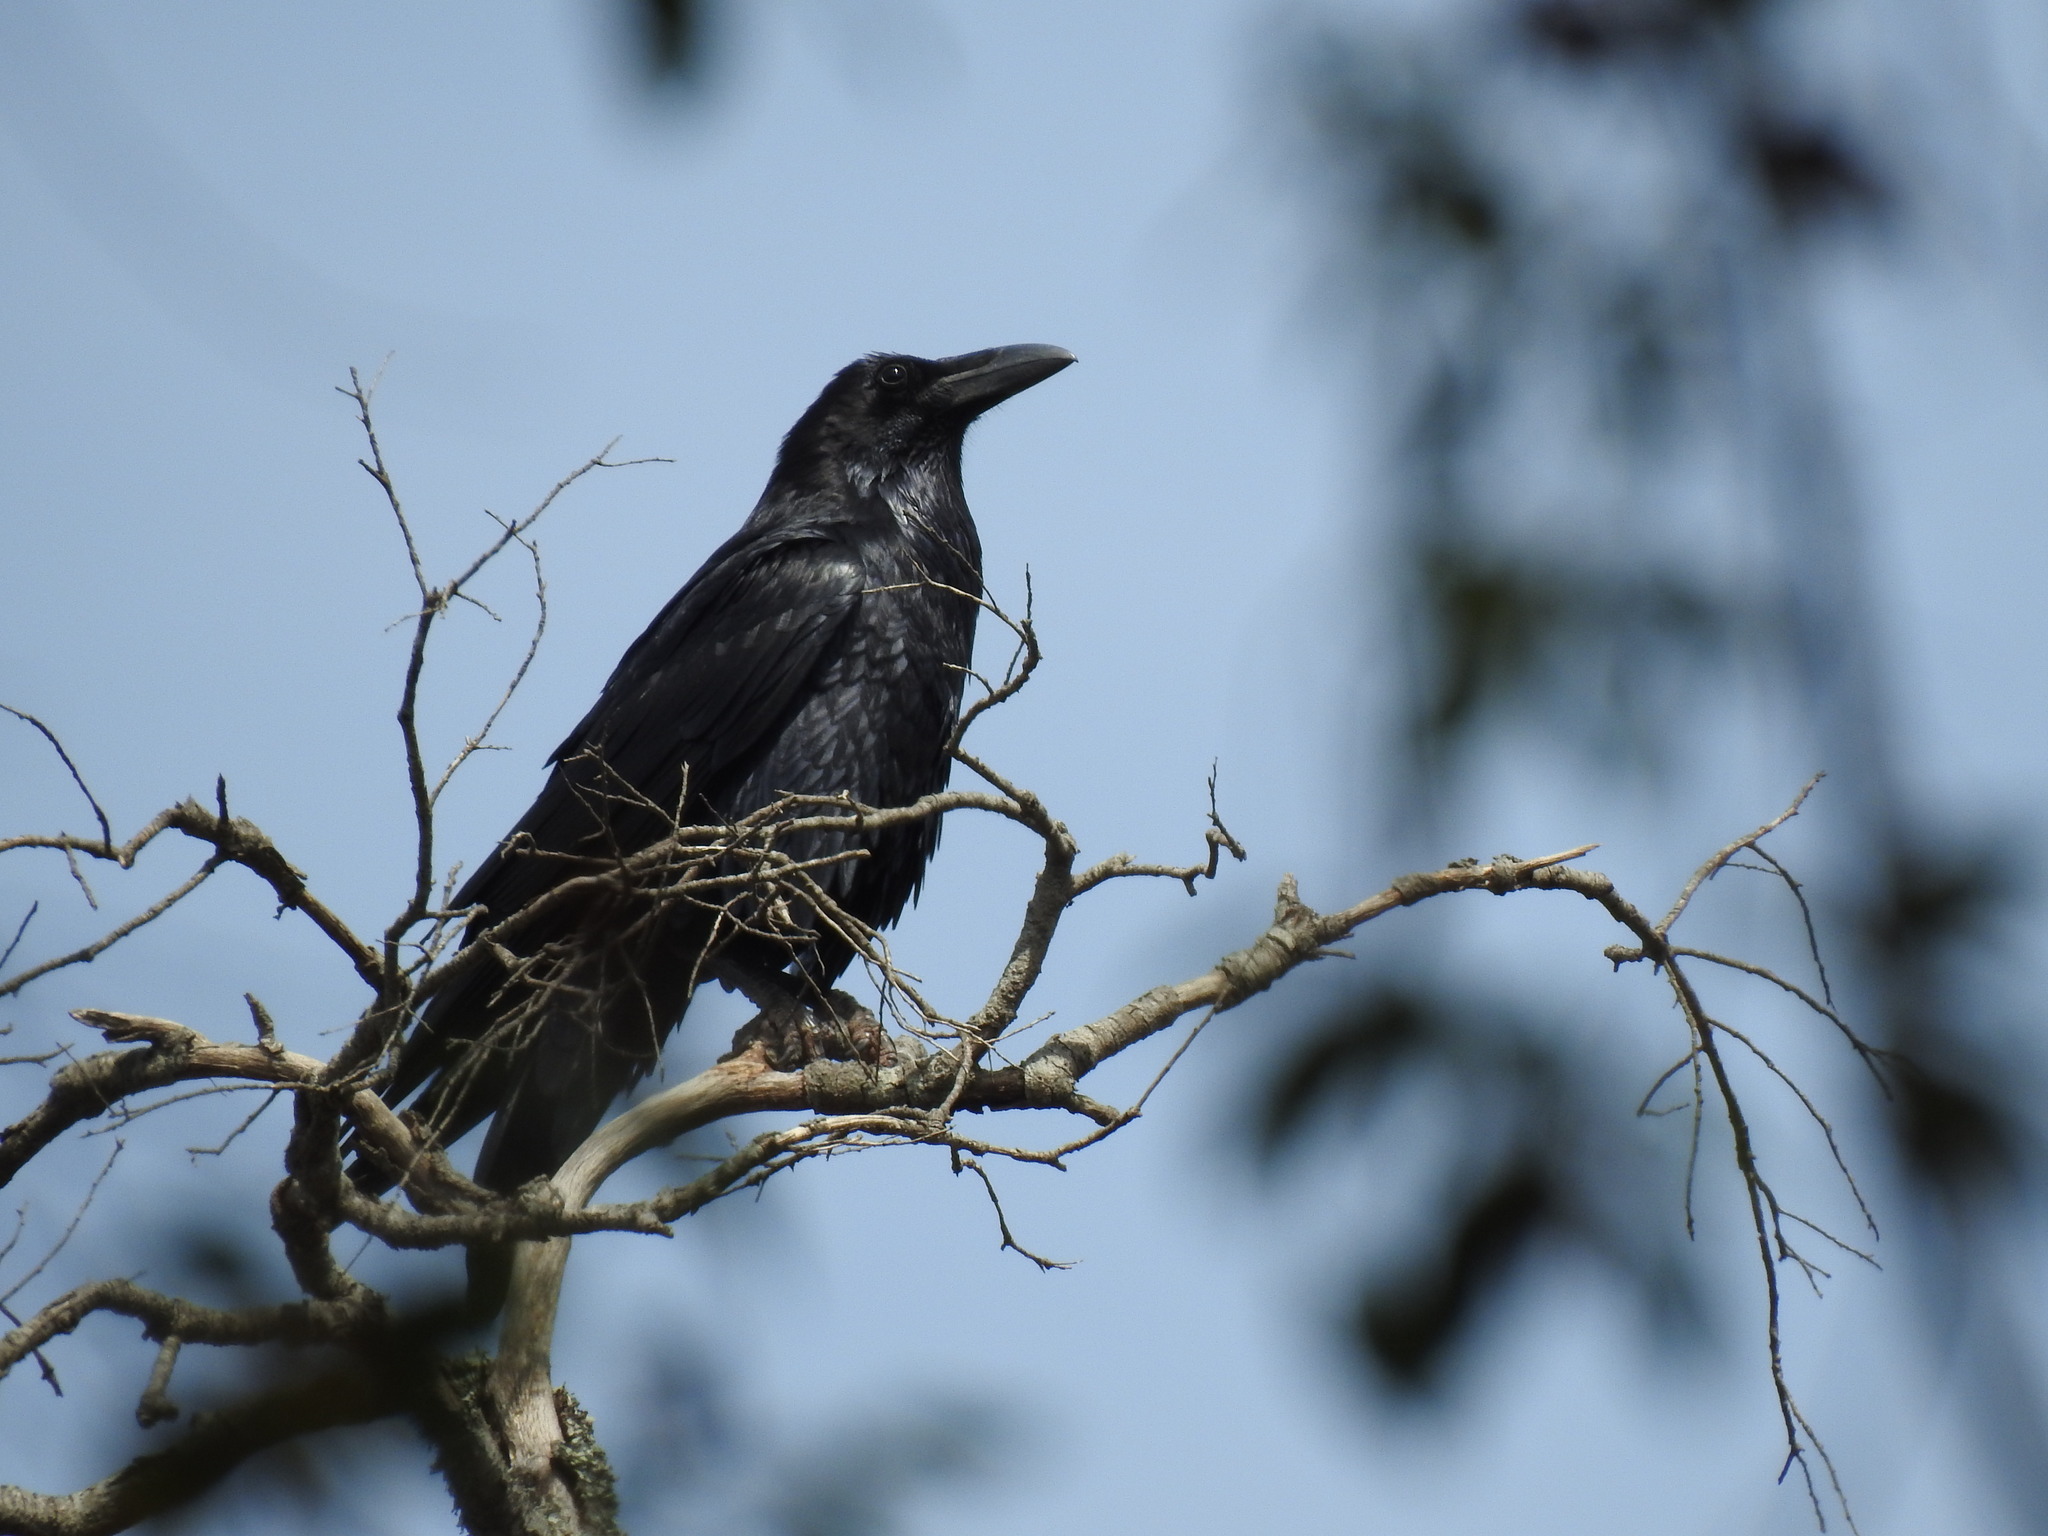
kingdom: Animalia
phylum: Chordata
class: Aves
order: Passeriformes
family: Corvidae
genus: Corvus
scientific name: Corvus corax
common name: Common raven
